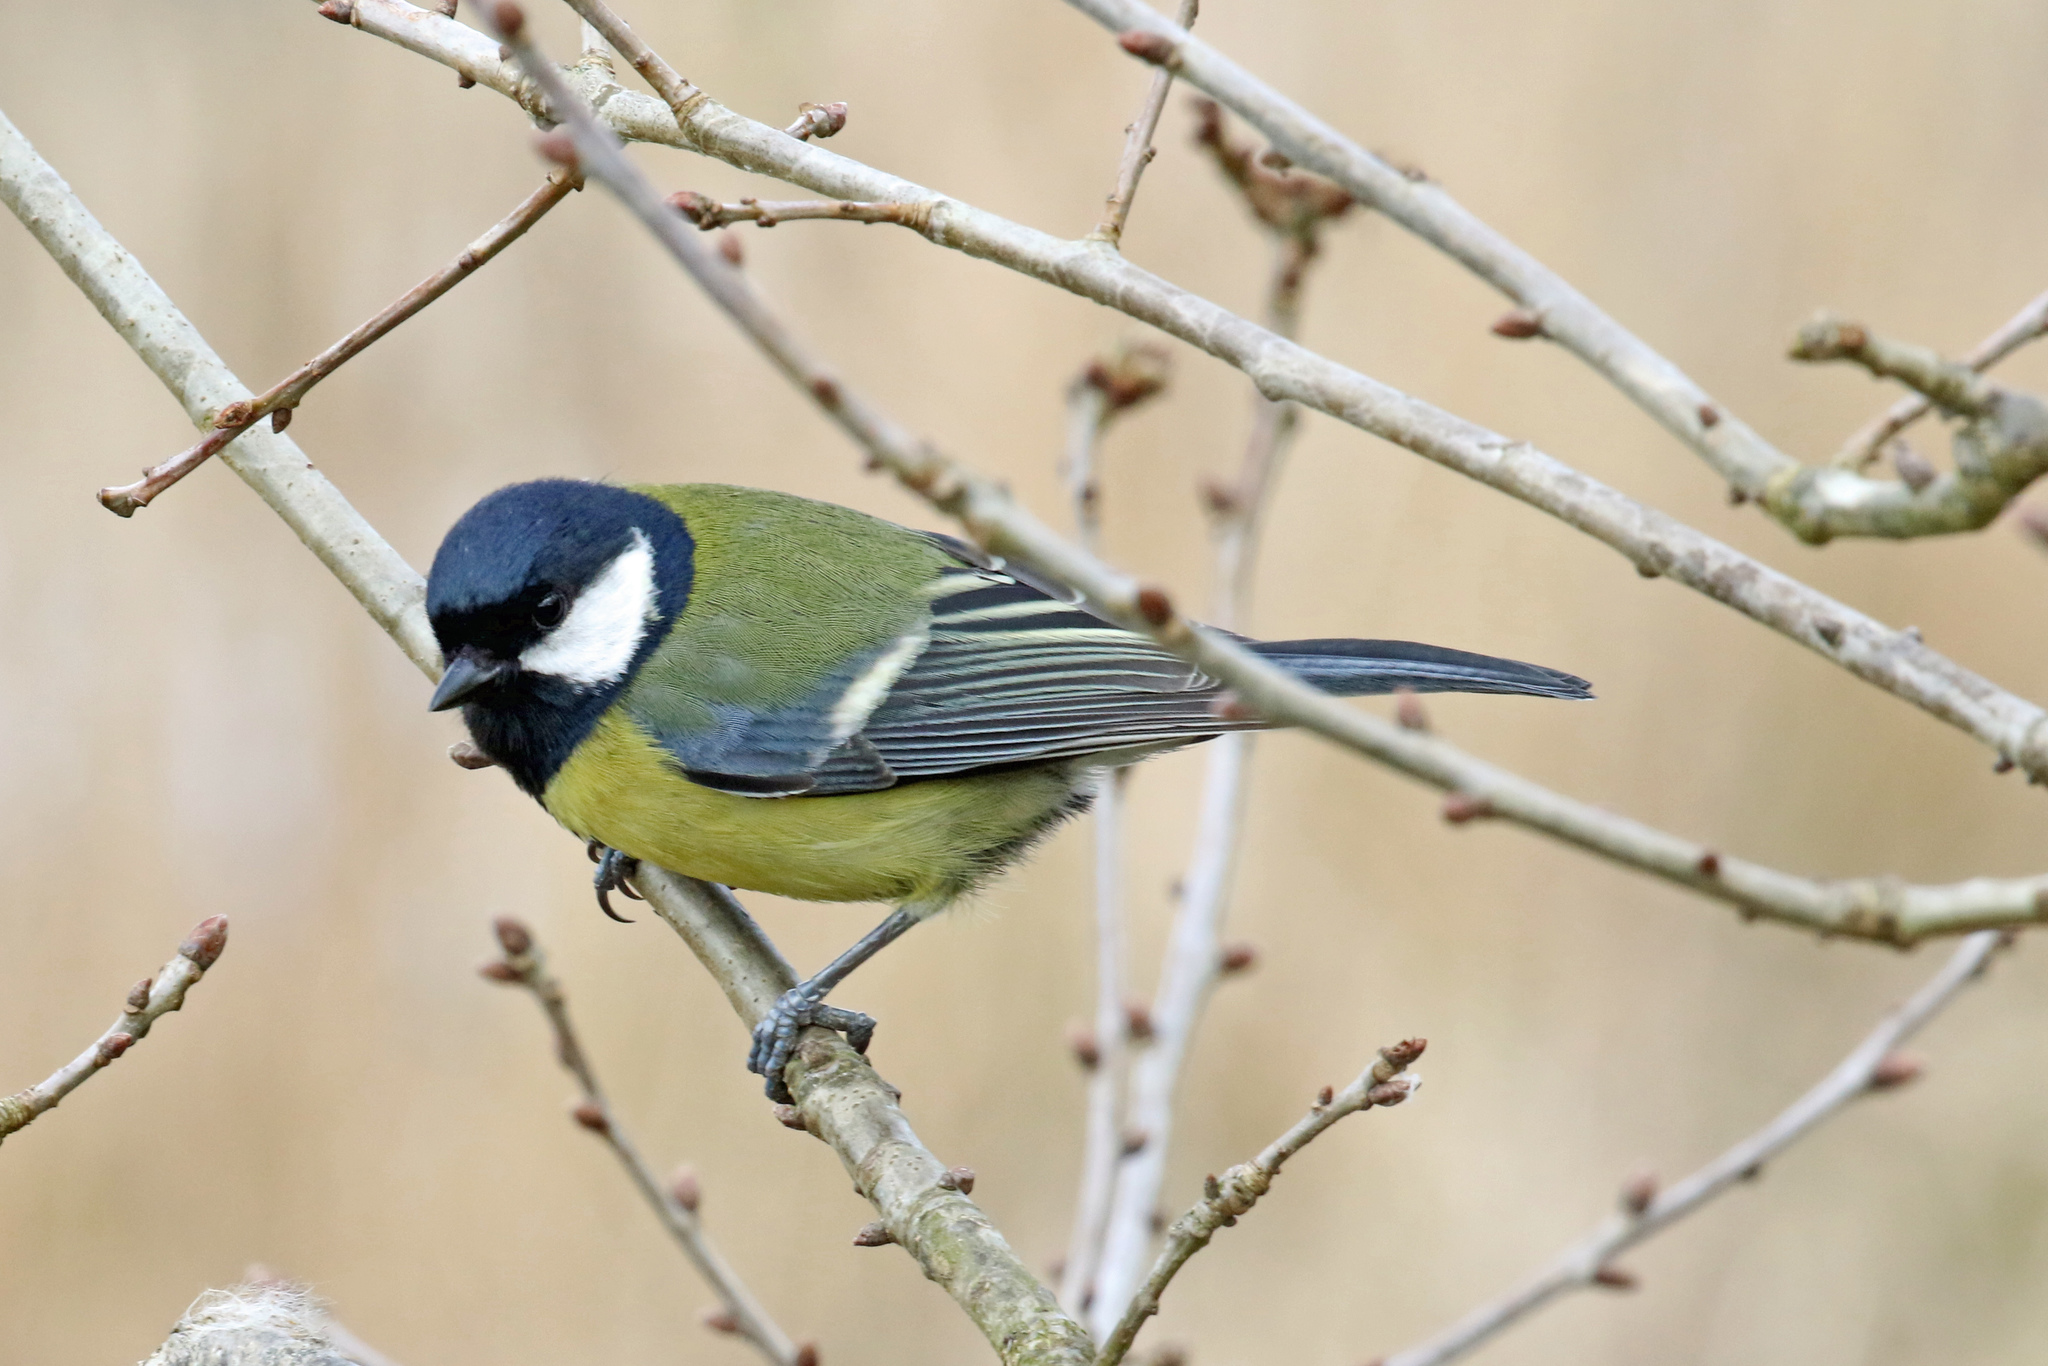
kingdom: Animalia
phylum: Chordata
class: Aves
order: Passeriformes
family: Paridae
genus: Parus
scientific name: Parus major
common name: Great tit
